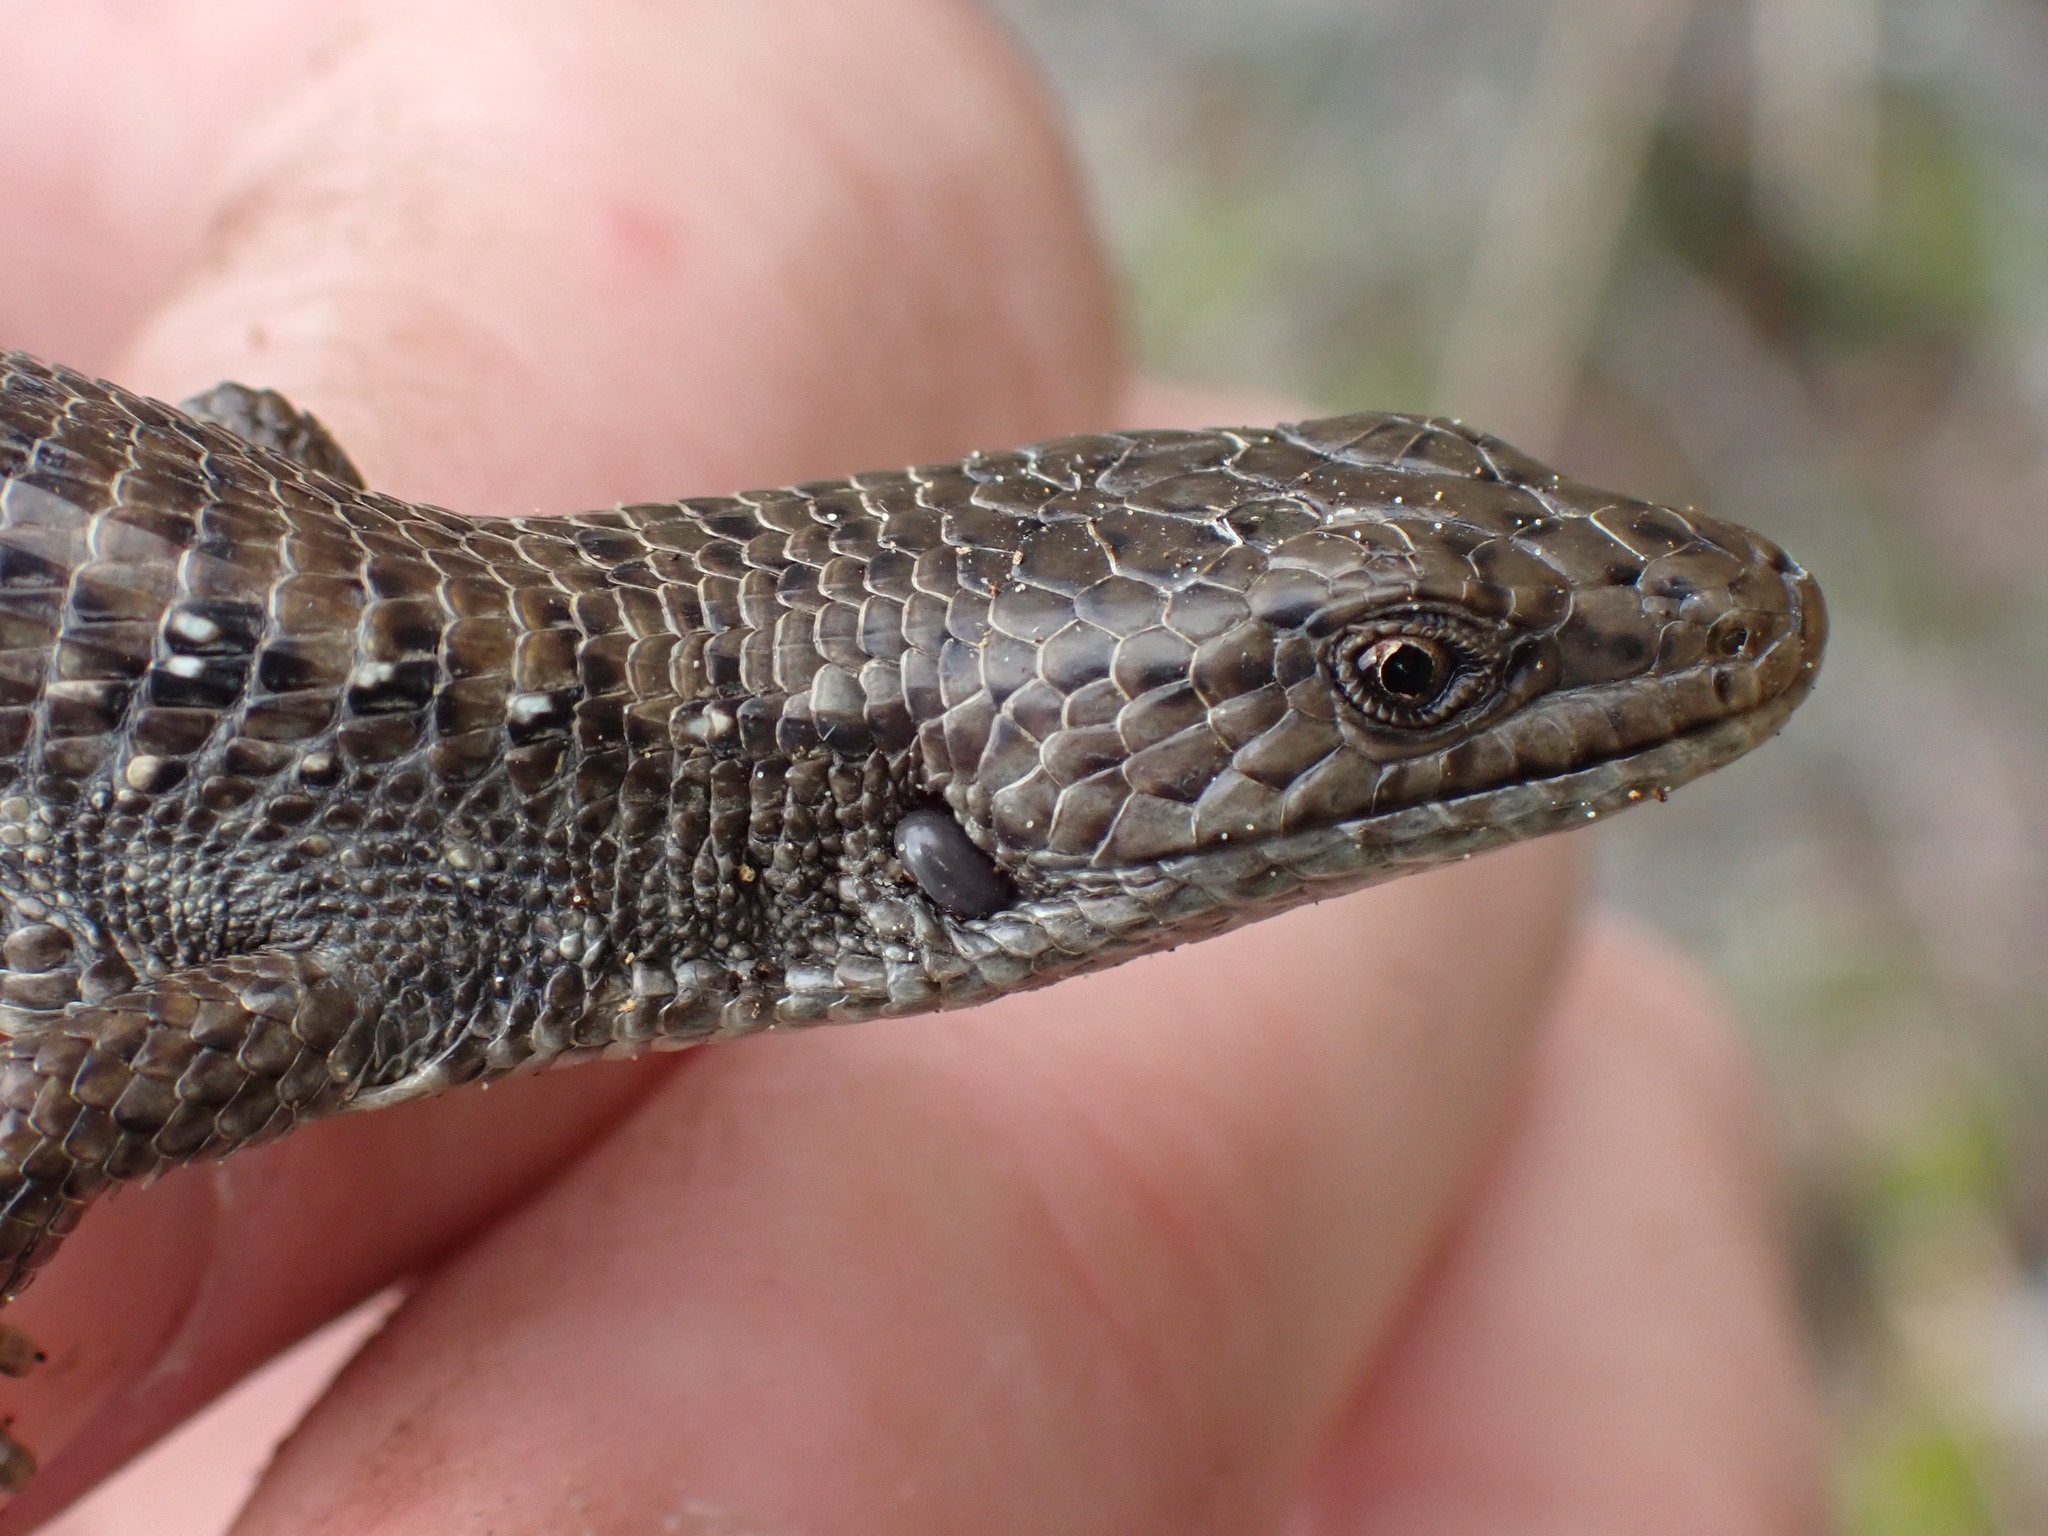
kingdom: Animalia
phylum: Chordata
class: Squamata
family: Anguidae
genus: Elgaria
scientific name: Elgaria coerulea
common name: Northern alligator lizard
